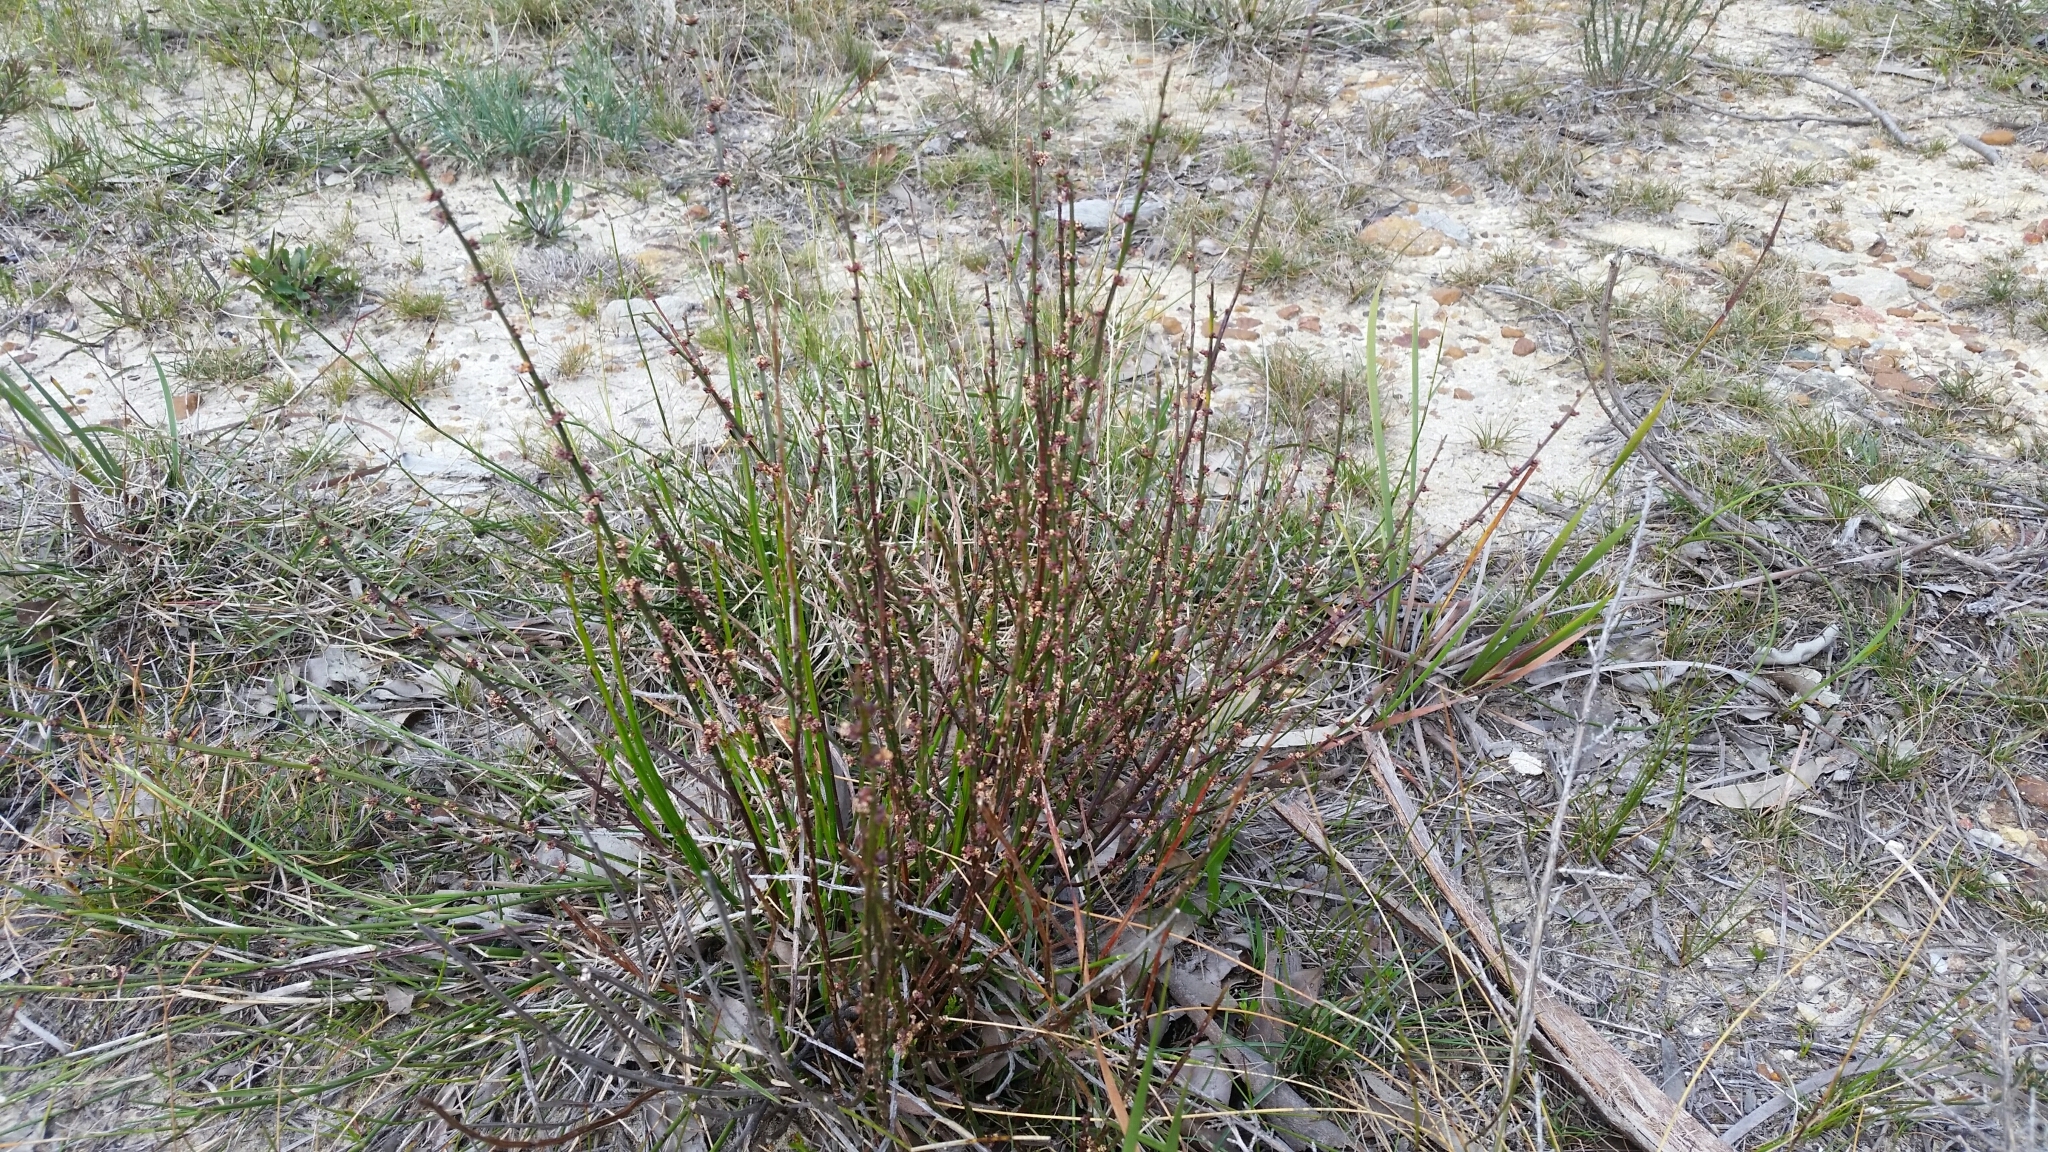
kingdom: Plantae
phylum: Tracheophyta
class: Magnoliopsida
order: Malpighiales
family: Euphorbiaceae
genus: Amperea
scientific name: Amperea xiphoclada
